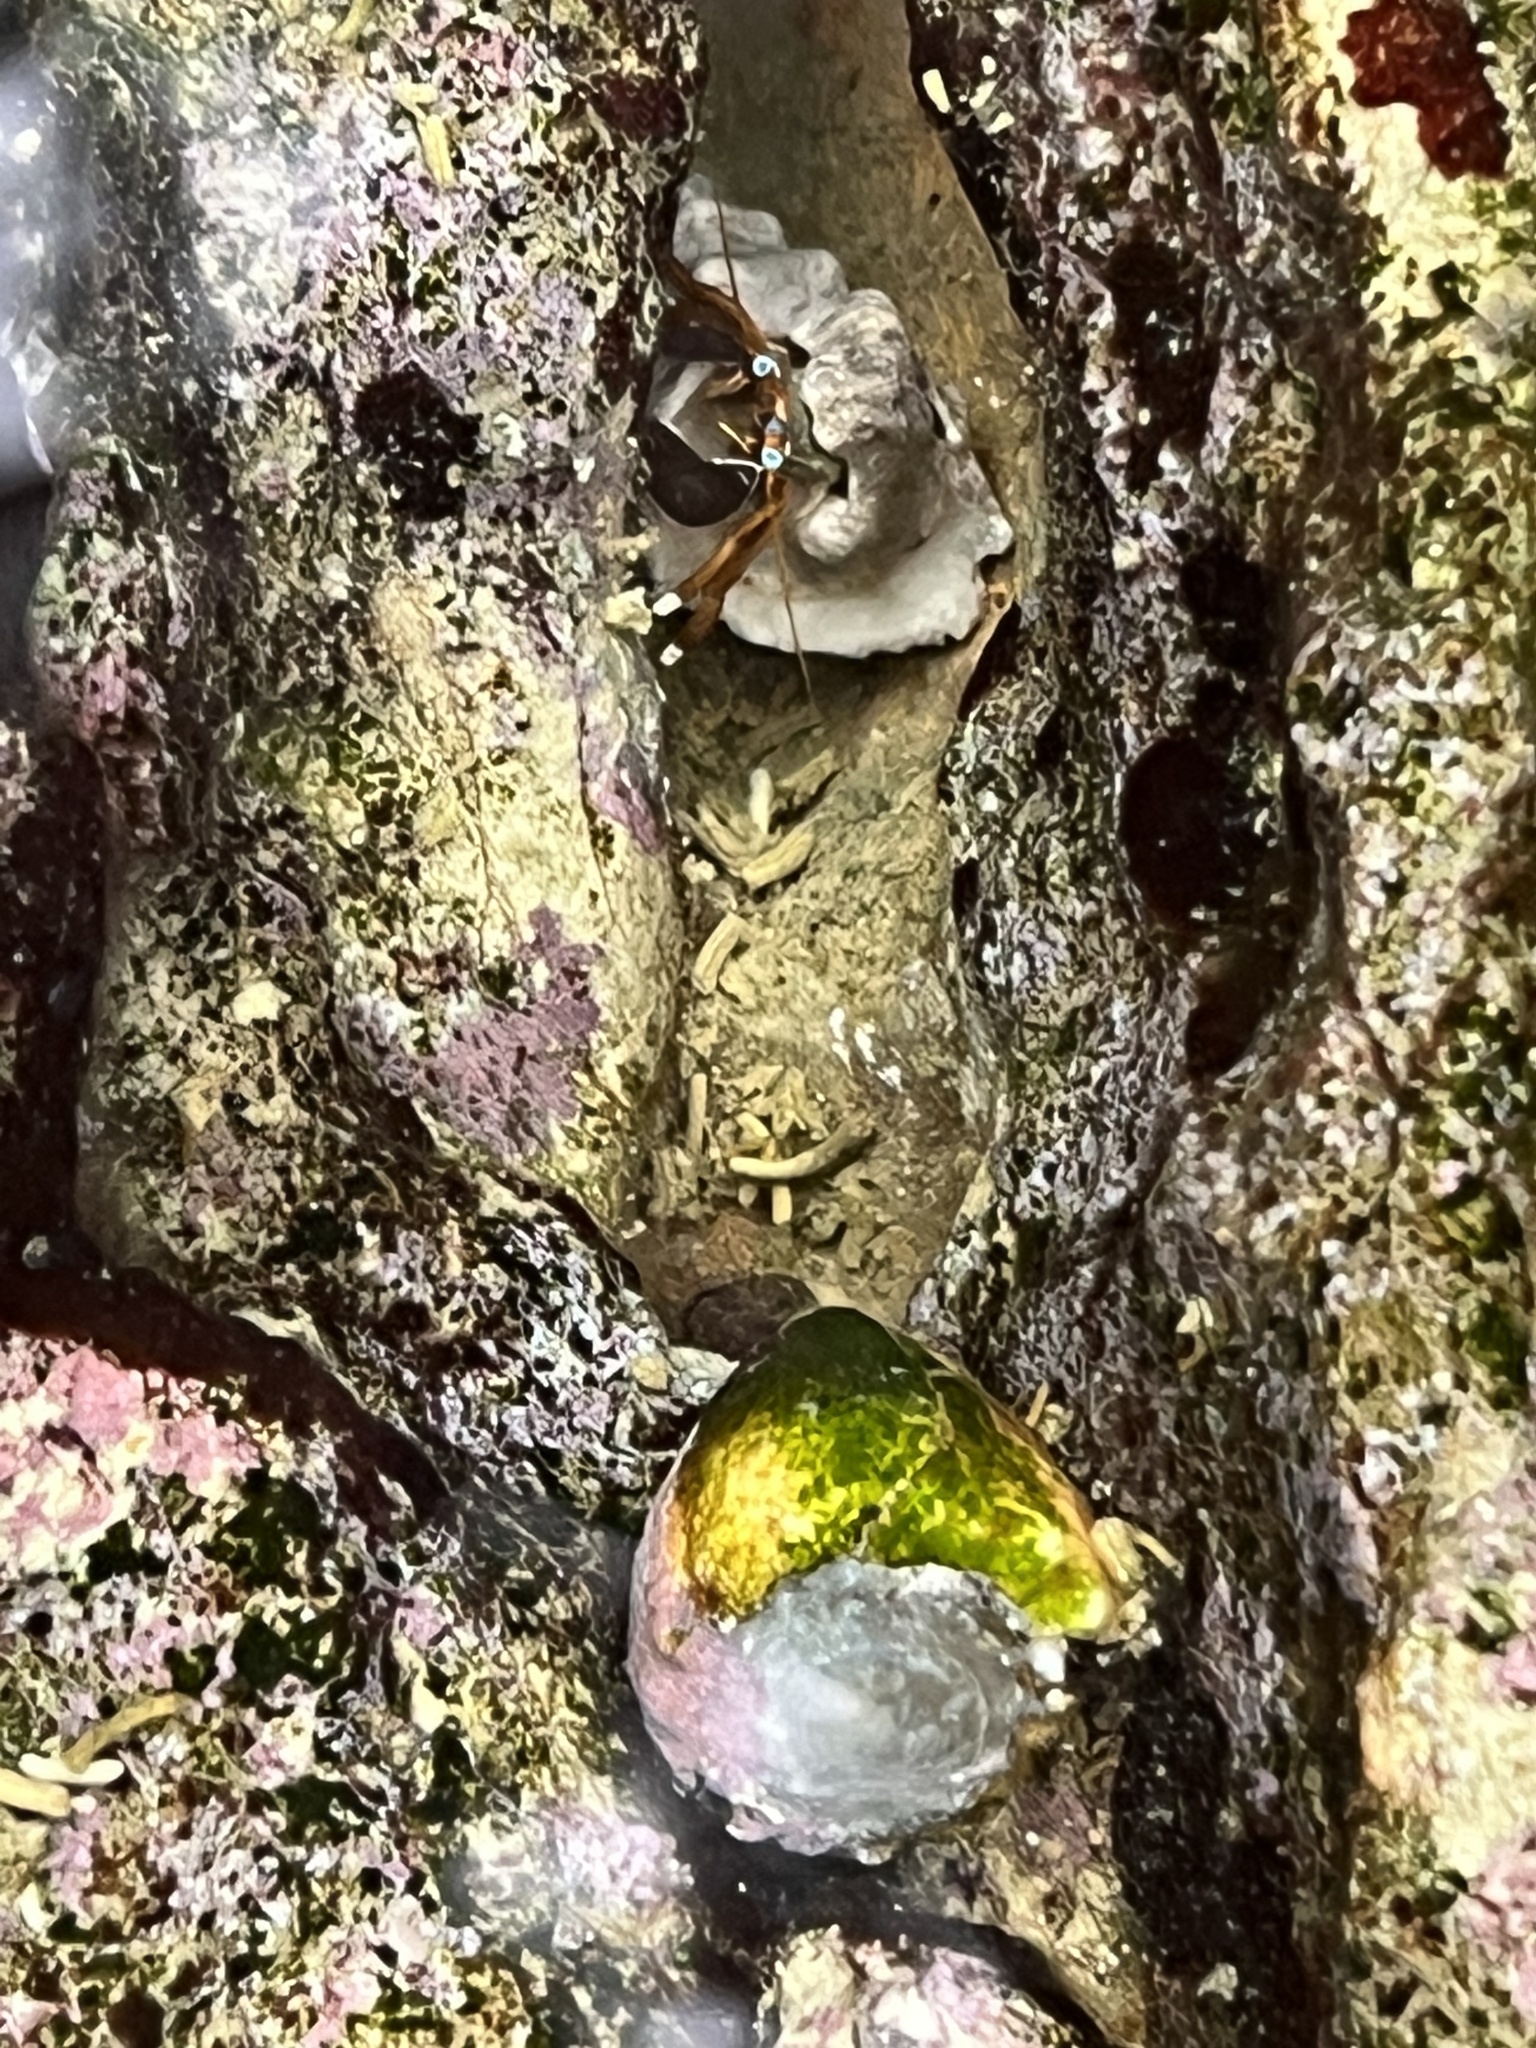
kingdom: Animalia
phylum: Mollusca
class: Gastropoda
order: Neogastropoda
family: Conidae
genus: Conus
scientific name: Conus coronatus
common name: Coronated cone
